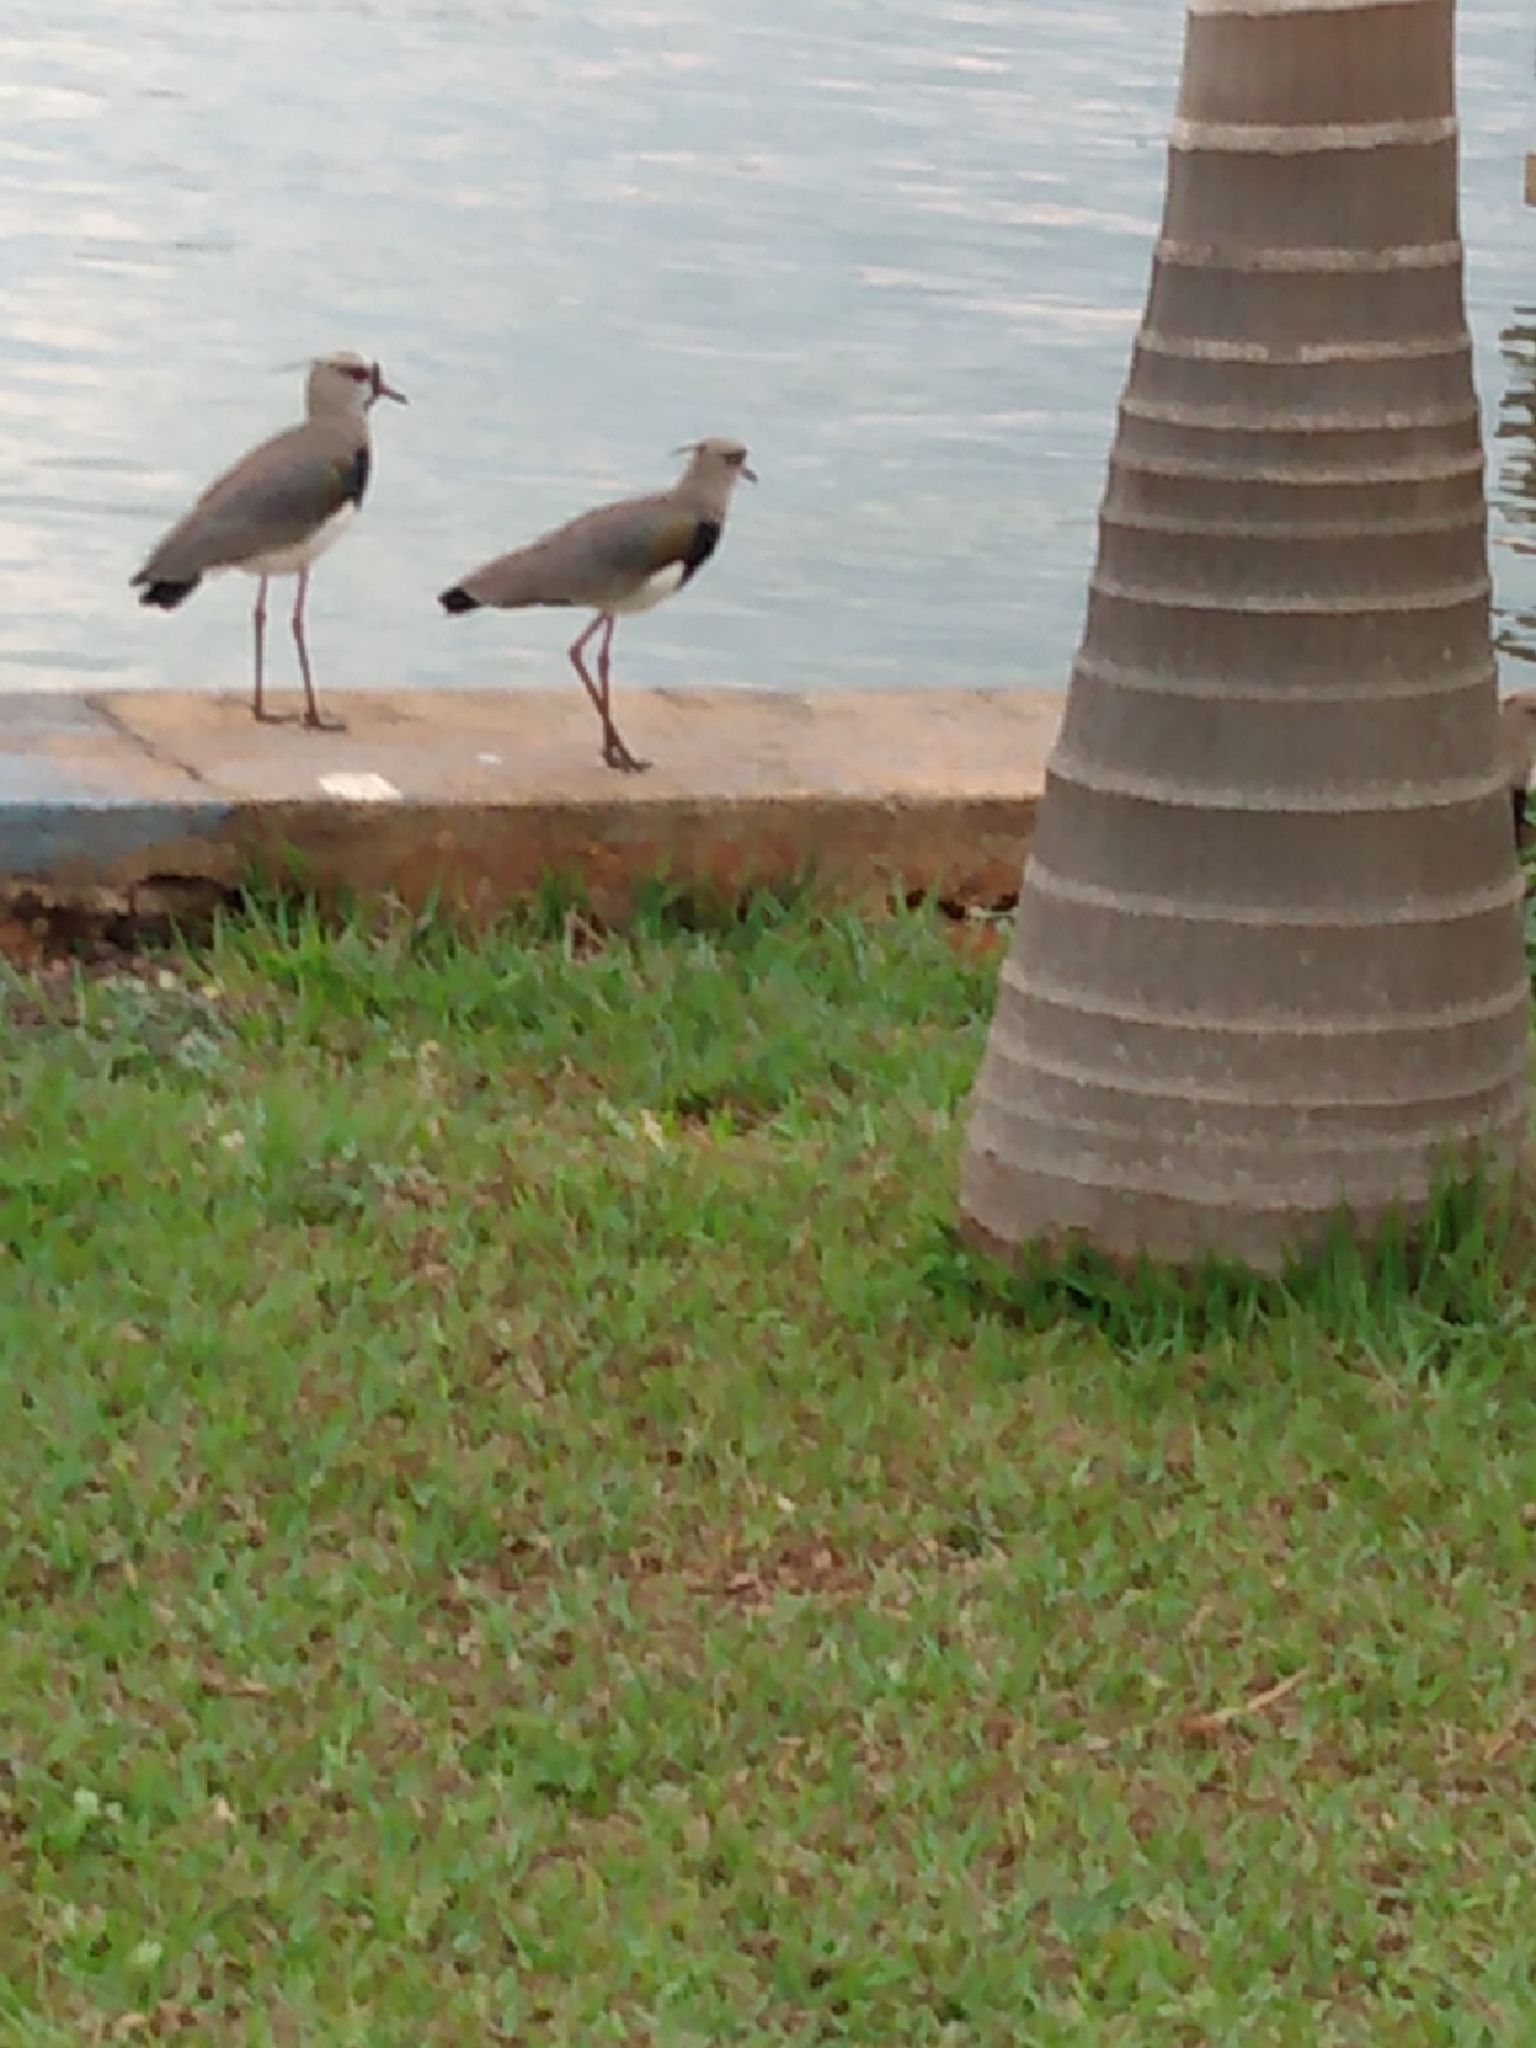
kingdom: Animalia
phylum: Chordata
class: Aves
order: Charadriiformes
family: Charadriidae
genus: Vanellus
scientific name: Vanellus chilensis
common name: Southern lapwing
